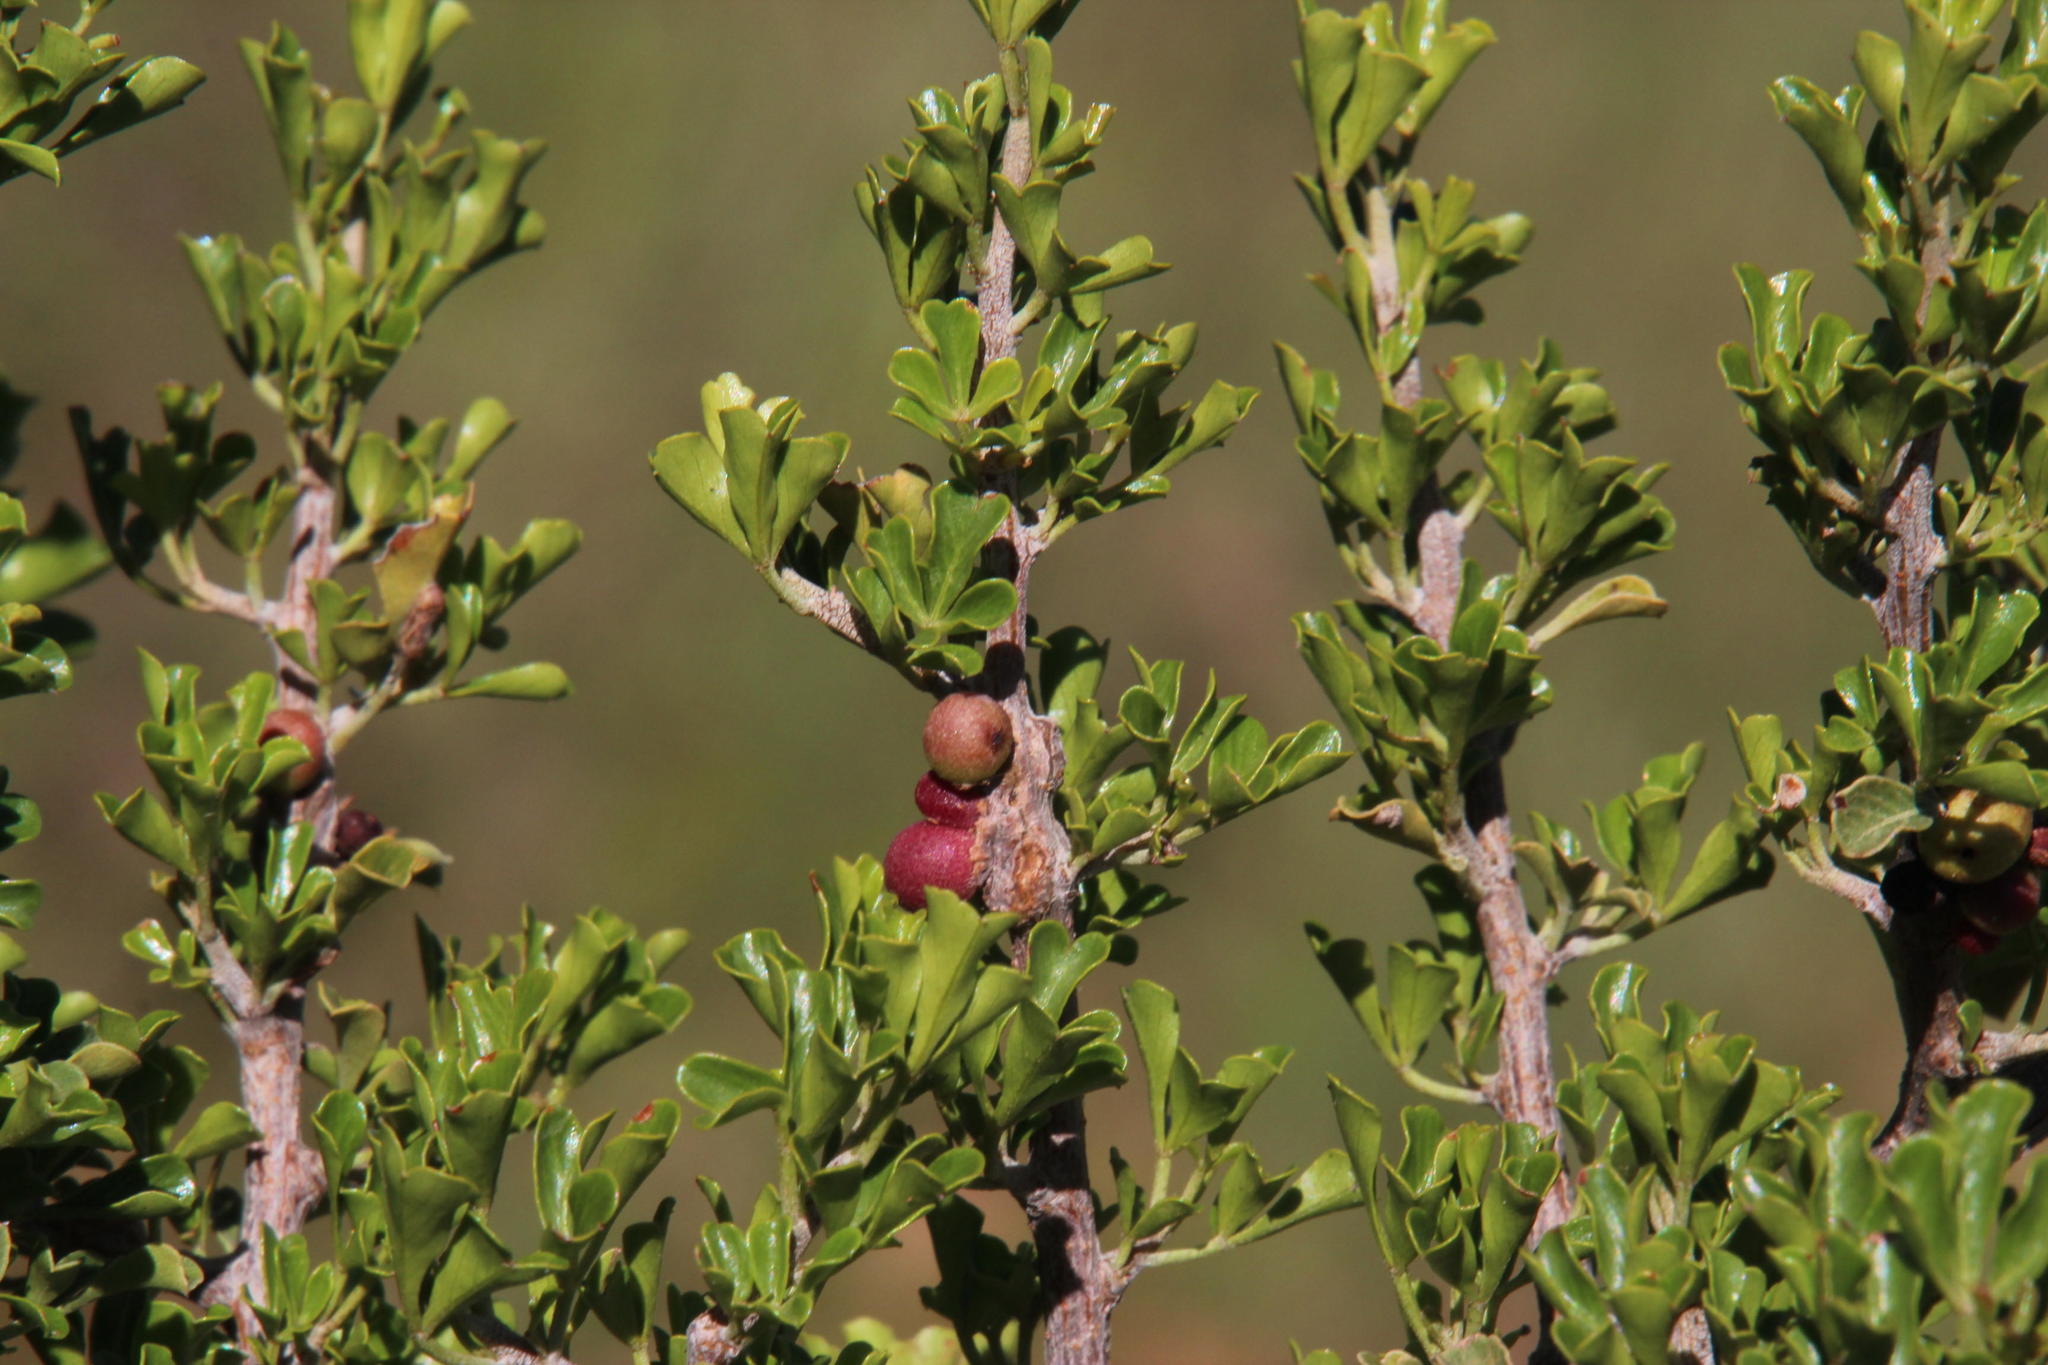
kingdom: Plantae
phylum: Tracheophyta
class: Magnoliopsida
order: Sapindales
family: Anacardiaceae
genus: Searsia
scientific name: Searsia burchellii
